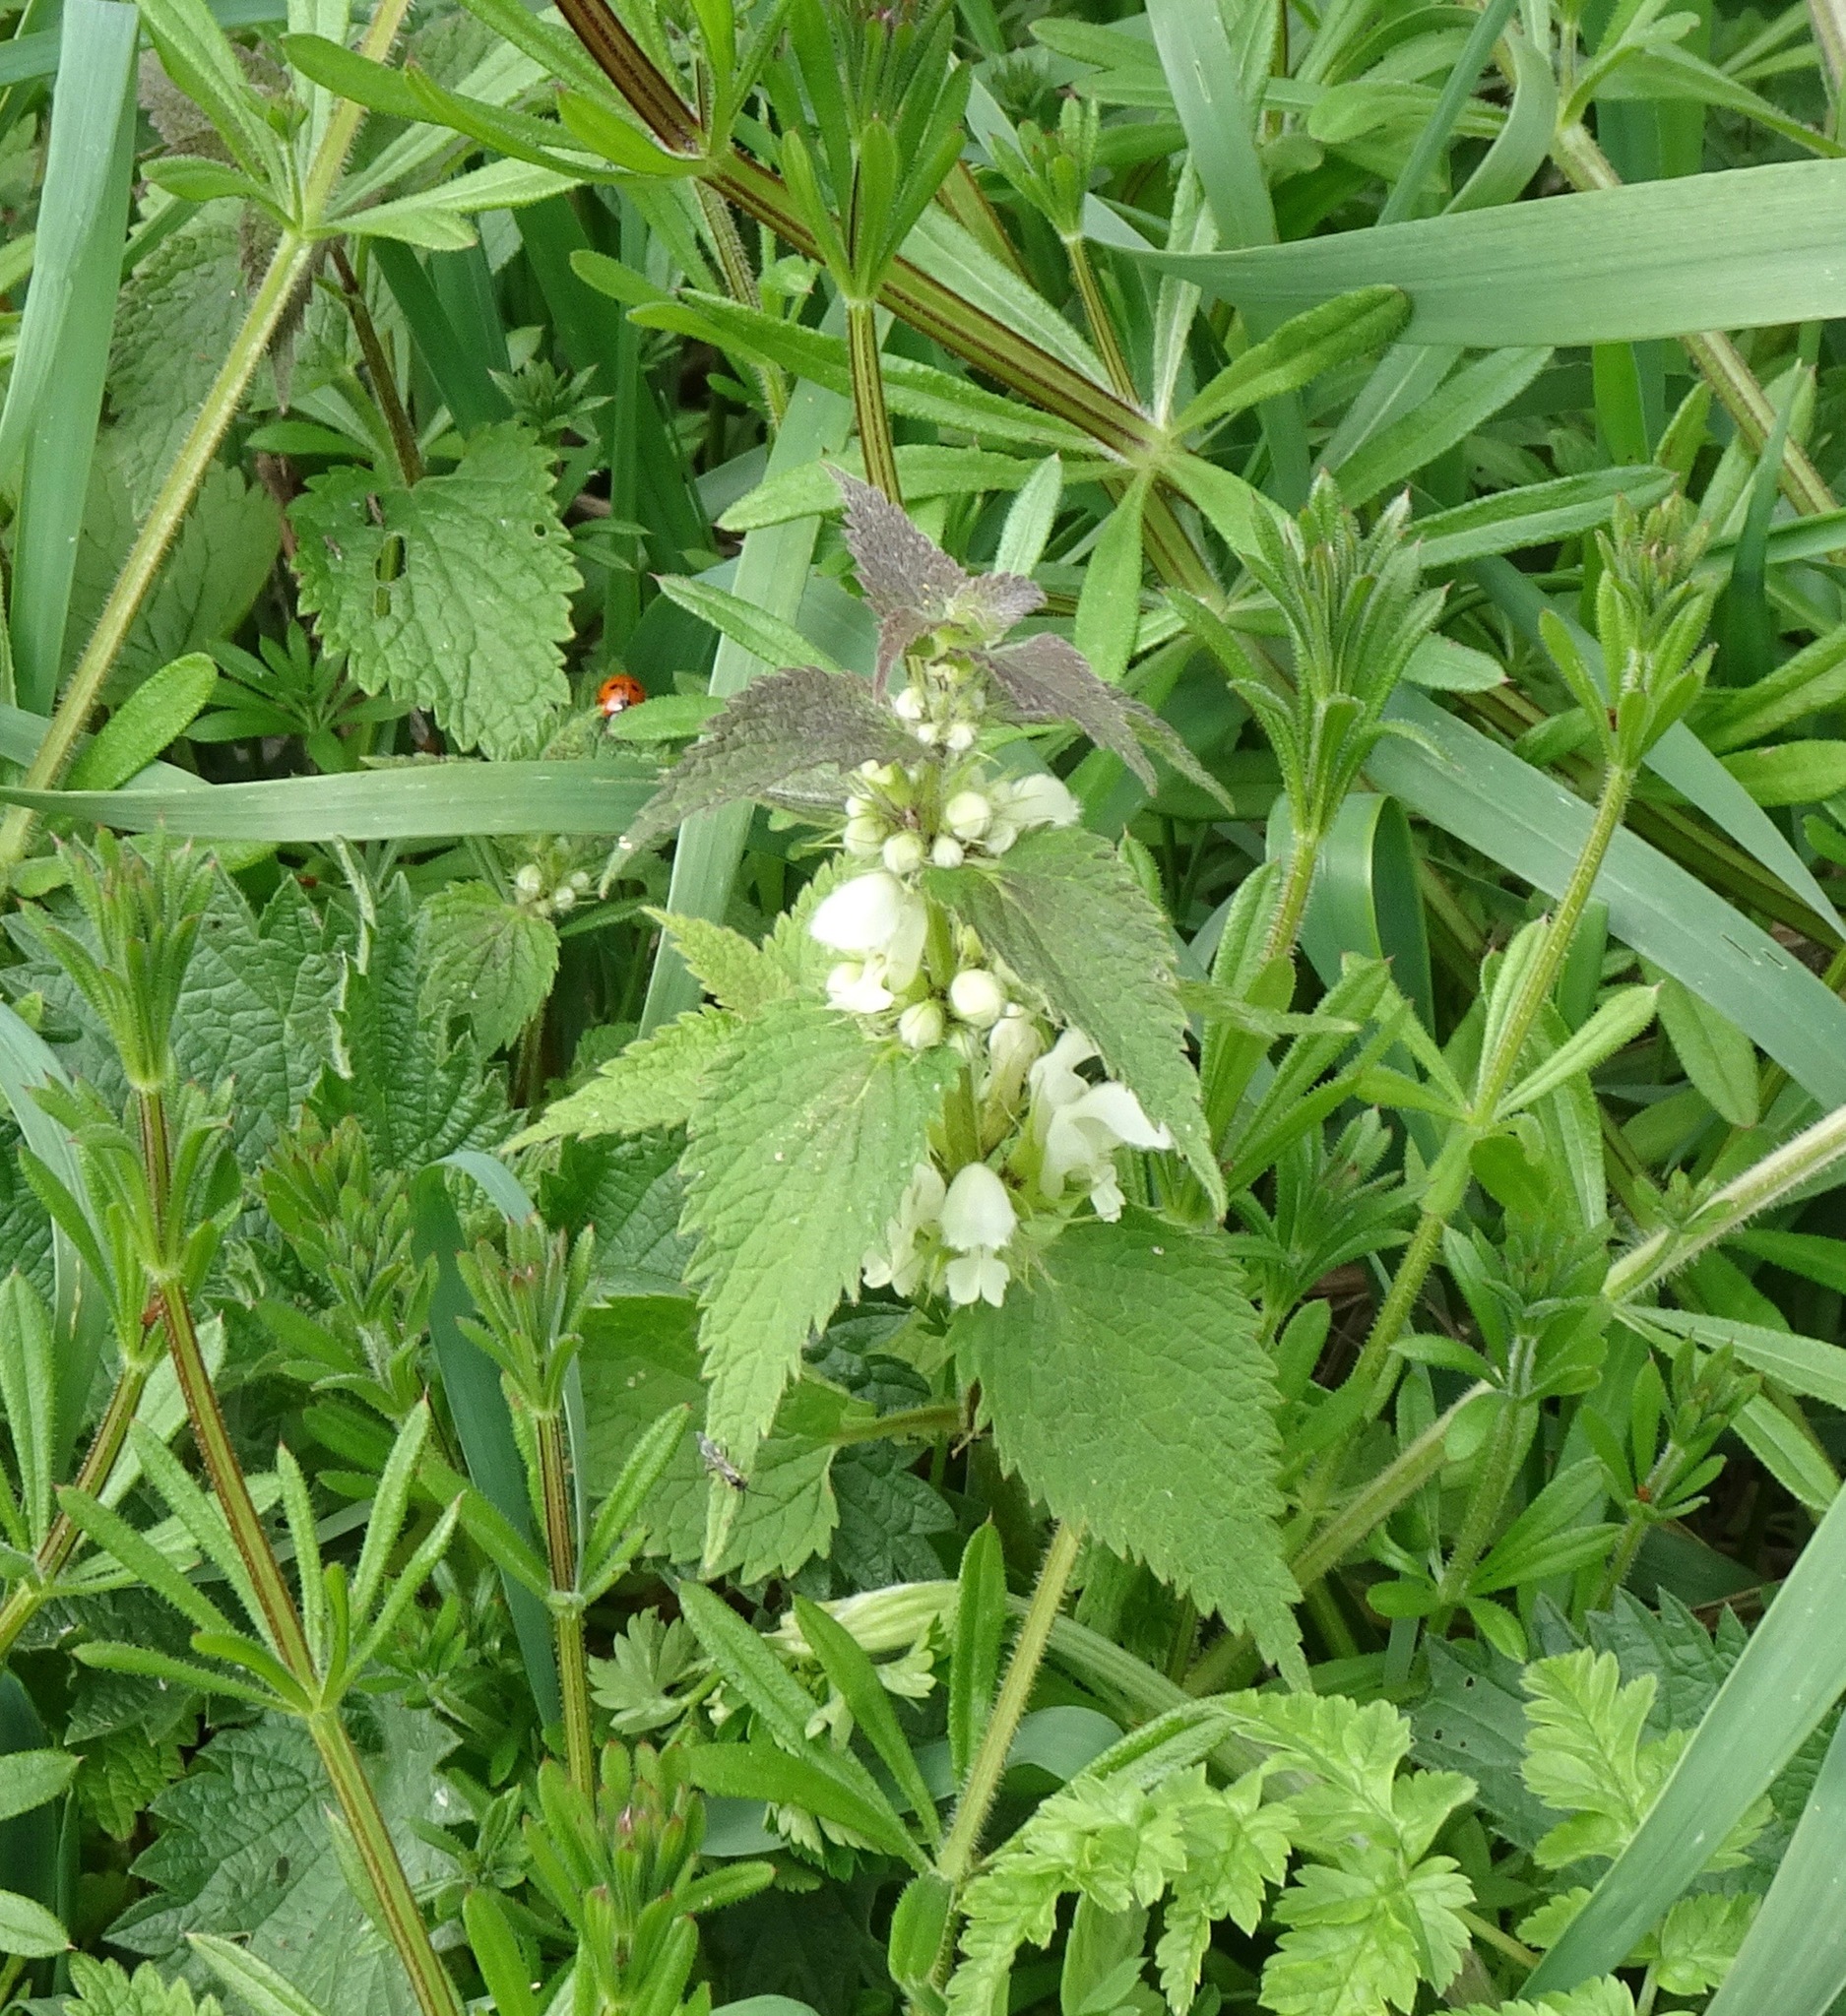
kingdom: Plantae
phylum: Tracheophyta
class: Magnoliopsida
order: Lamiales
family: Lamiaceae
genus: Lamium
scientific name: Lamium album
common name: White dead-nettle
